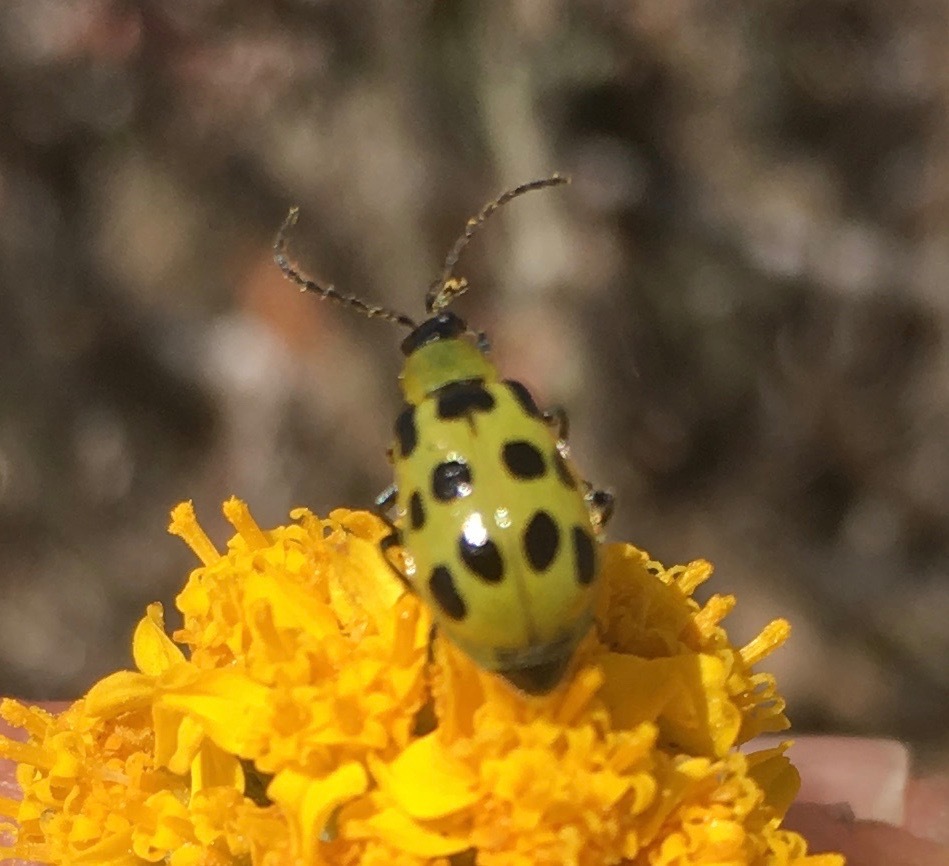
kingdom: Animalia
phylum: Arthropoda
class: Insecta
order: Coleoptera
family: Chrysomelidae
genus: Diabrotica
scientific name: Diabrotica undecimpunctata
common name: Spotted cucumber beetle
